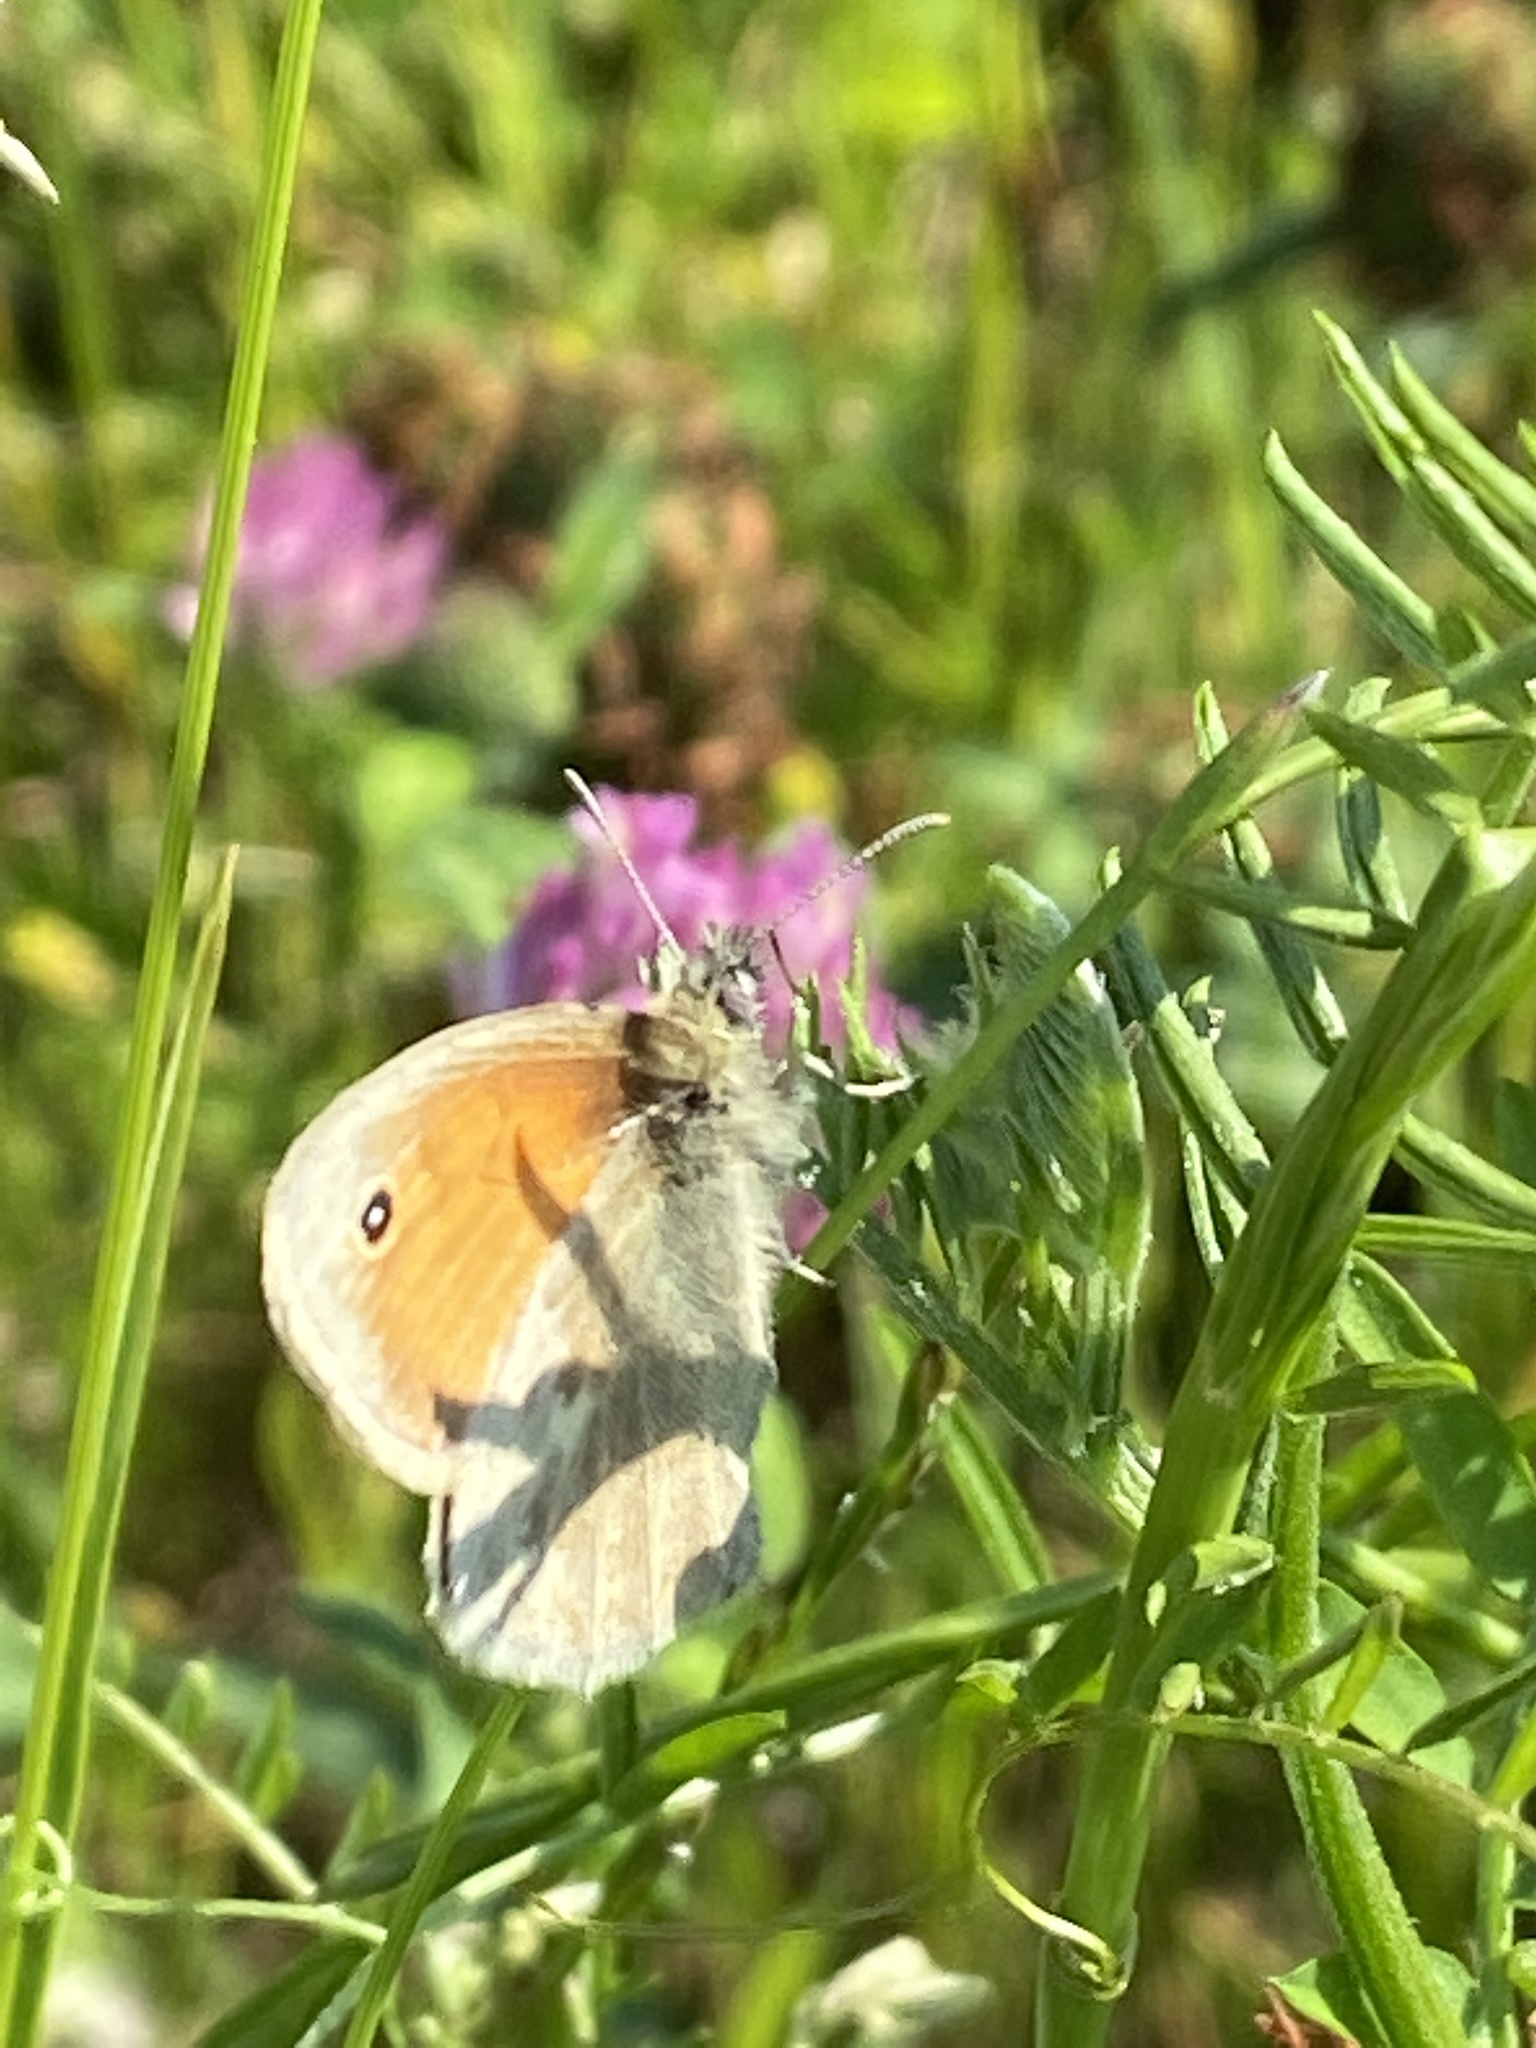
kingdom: Animalia
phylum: Arthropoda
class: Insecta
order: Lepidoptera
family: Nymphalidae
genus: Coenonympha
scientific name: Coenonympha pamphilus
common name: Small heath
